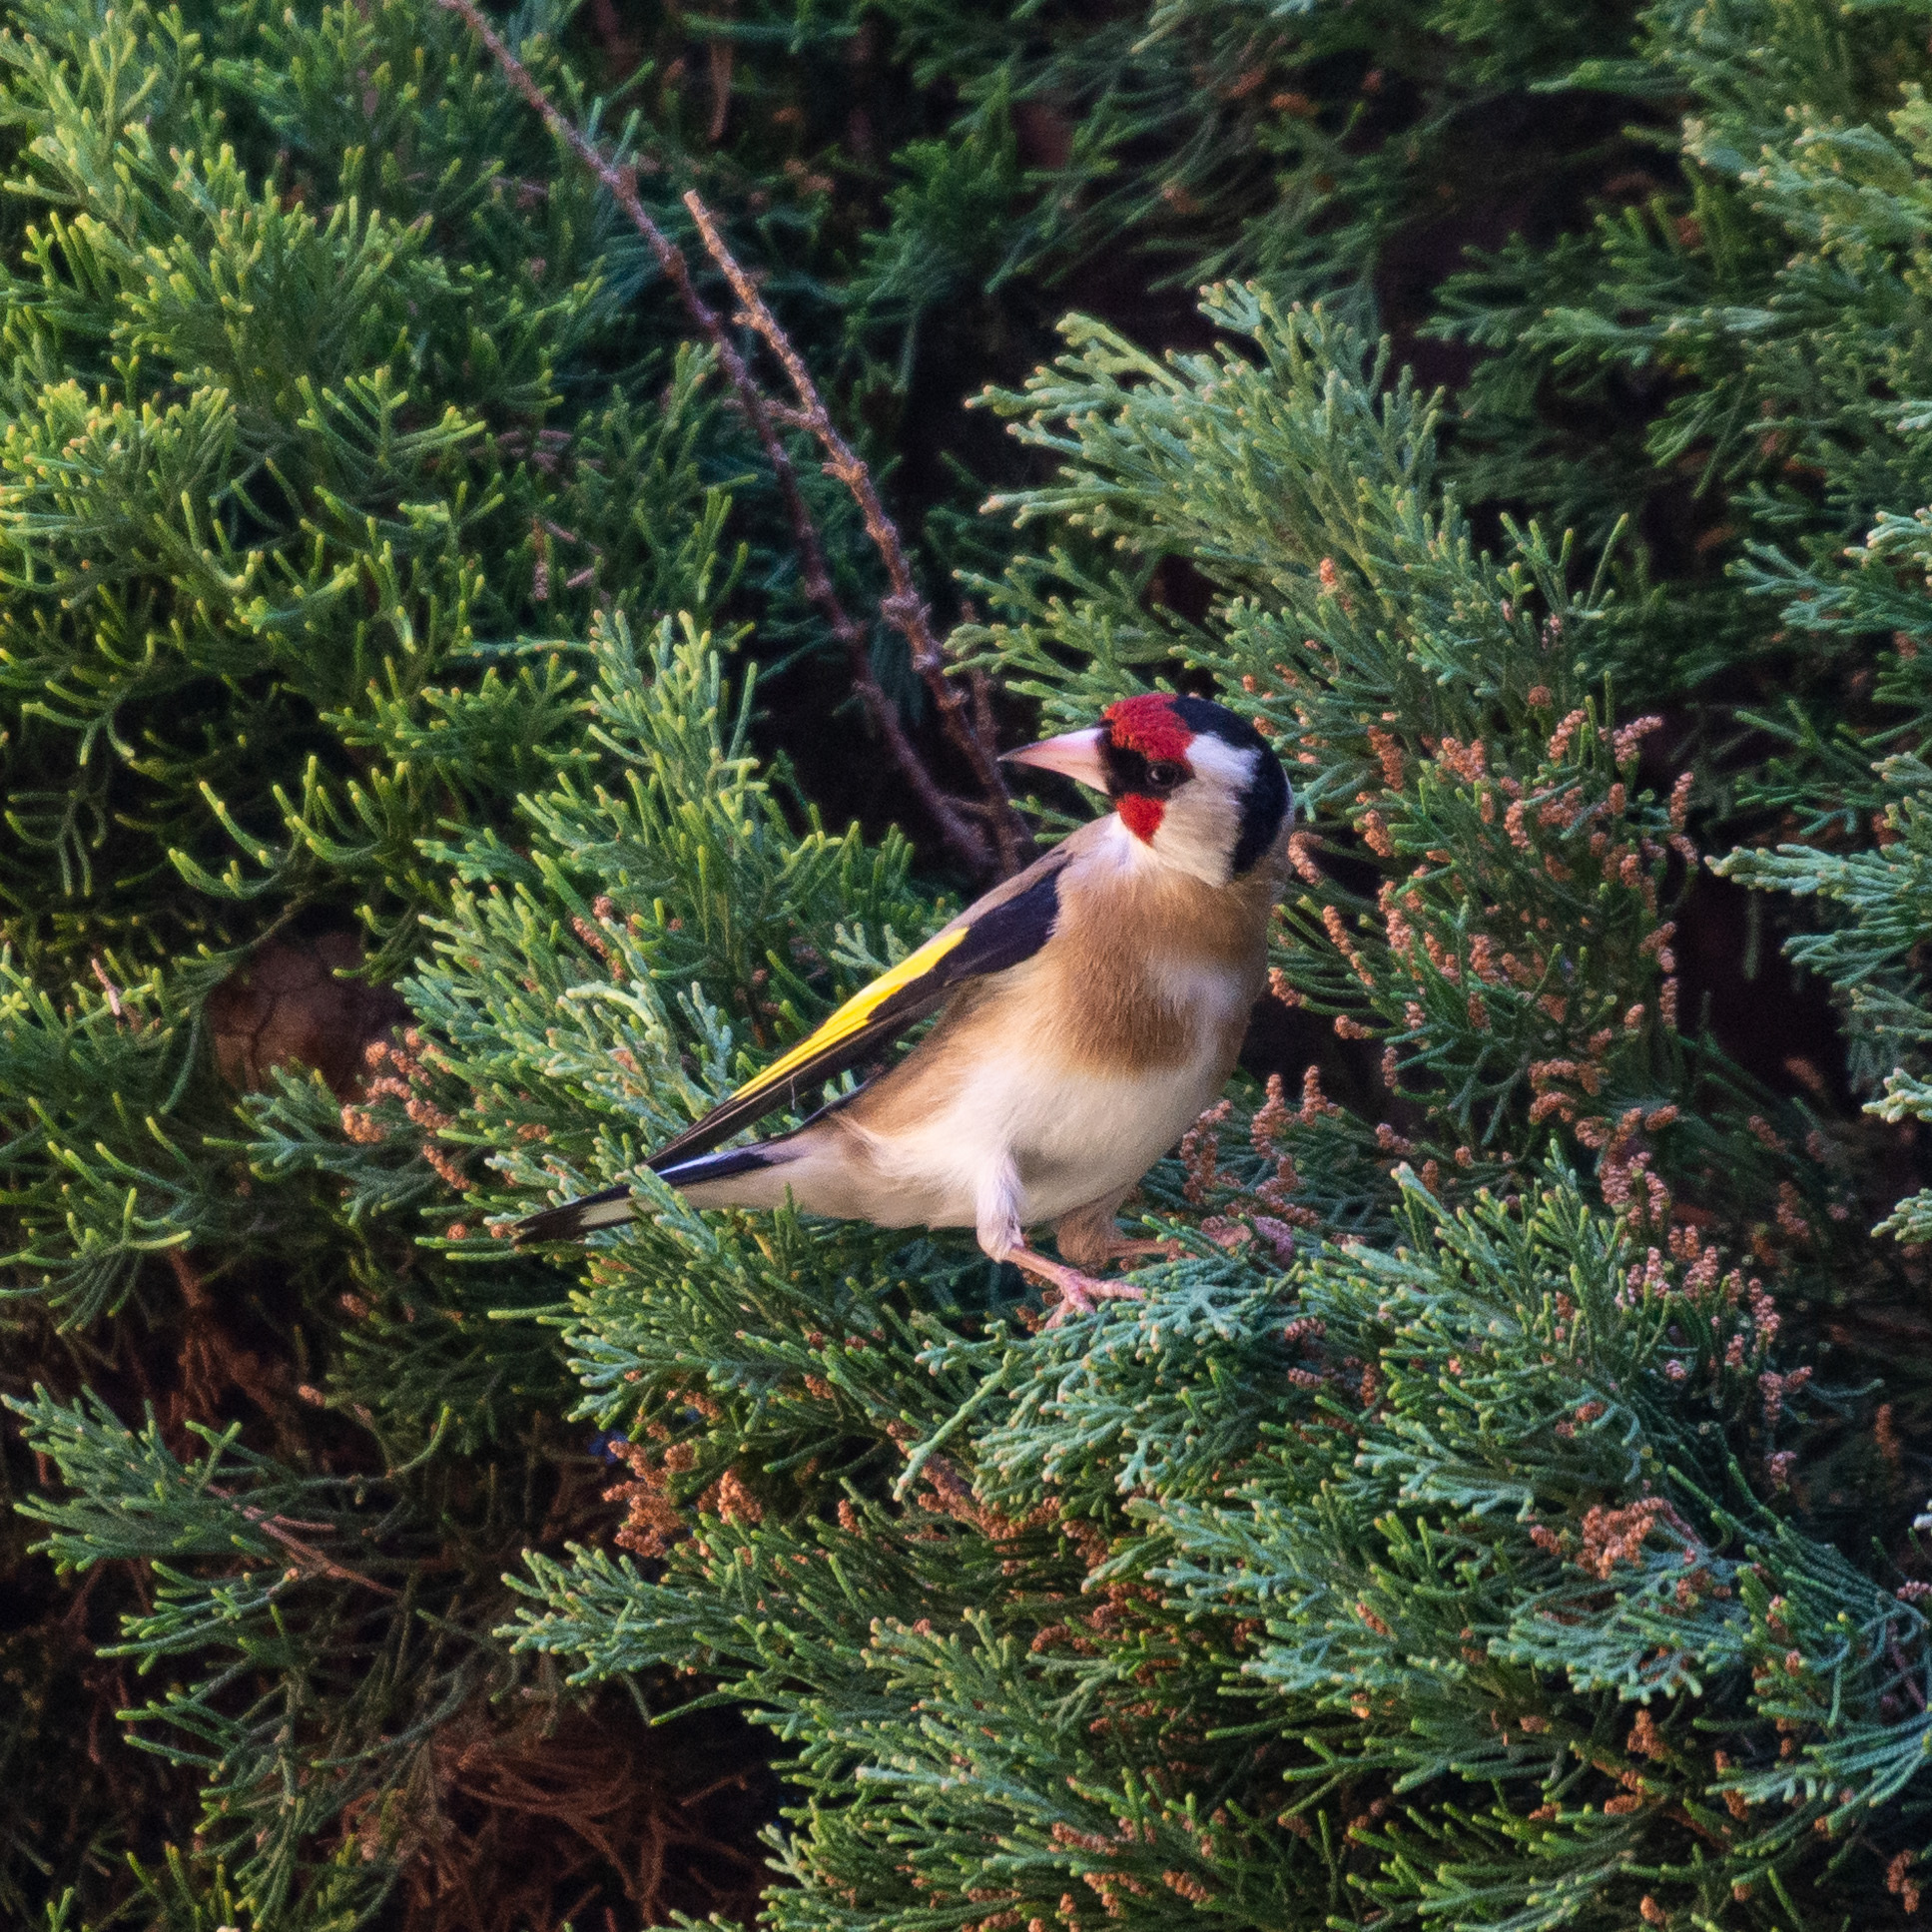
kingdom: Animalia
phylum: Chordata
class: Aves
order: Passeriformes
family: Fringillidae
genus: Carduelis
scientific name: Carduelis carduelis
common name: European goldfinch
